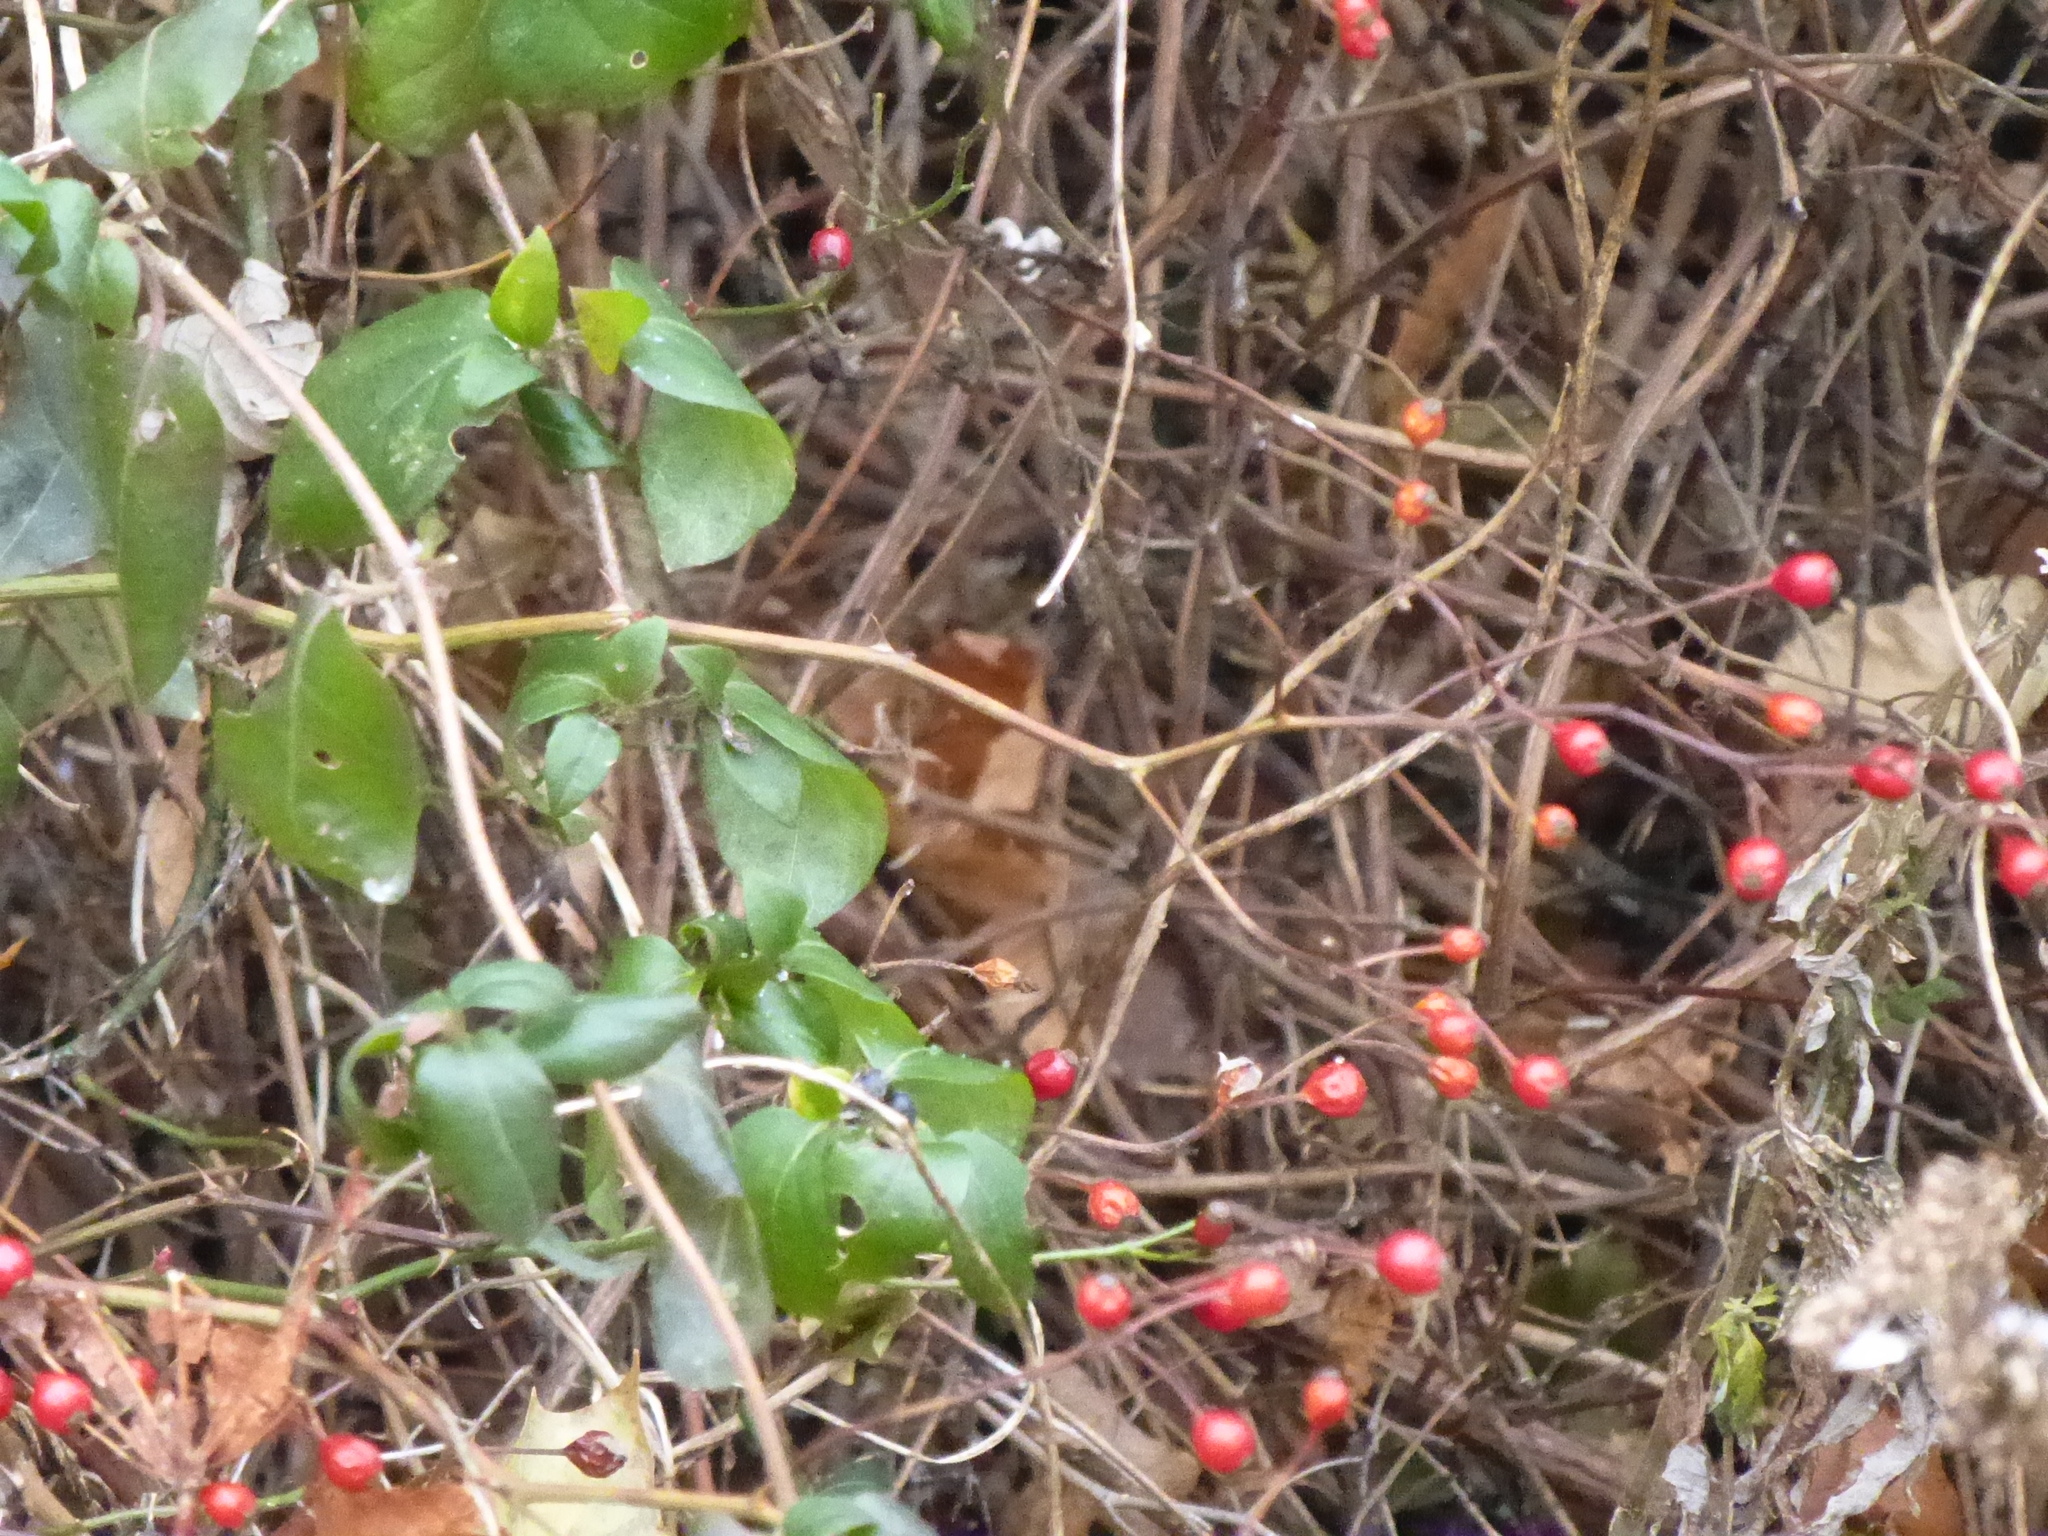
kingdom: Plantae
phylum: Tracheophyta
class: Magnoliopsida
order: Dipsacales
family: Caprifoliaceae
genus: Lonicera
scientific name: Lonicera japonica
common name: Japanese honeysuckle
